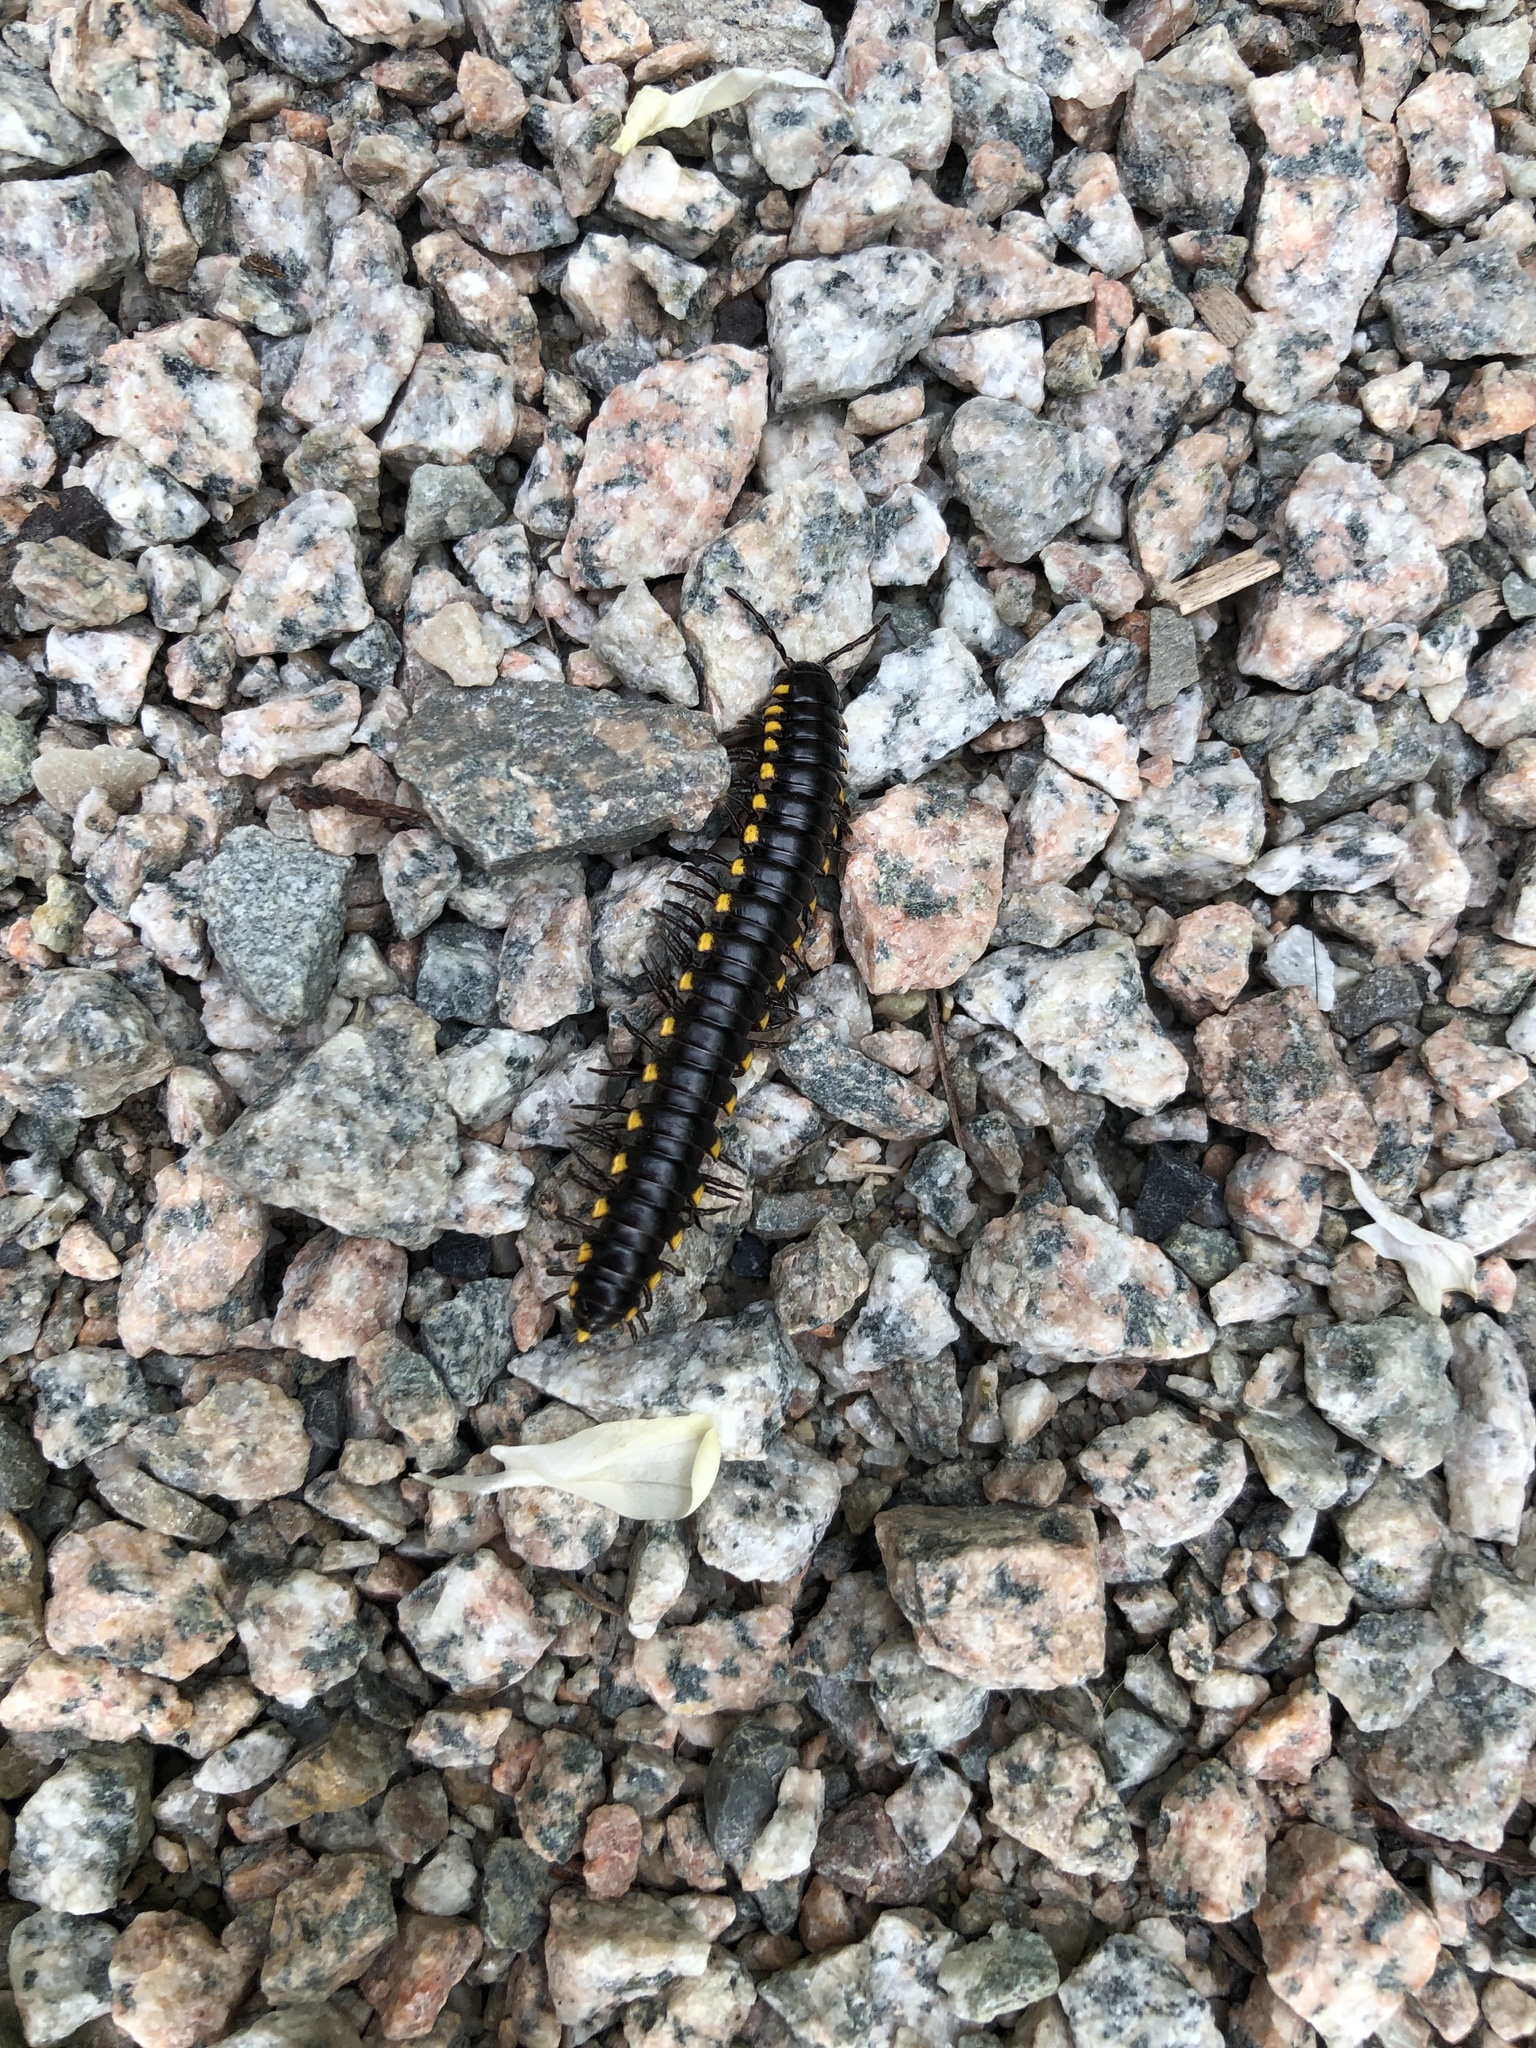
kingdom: Animalia
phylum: Arthropoda
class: Diplopoda
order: Polydesmida
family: Xystodesmidae
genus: Harpaphe
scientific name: Harpaphe haydeniana
